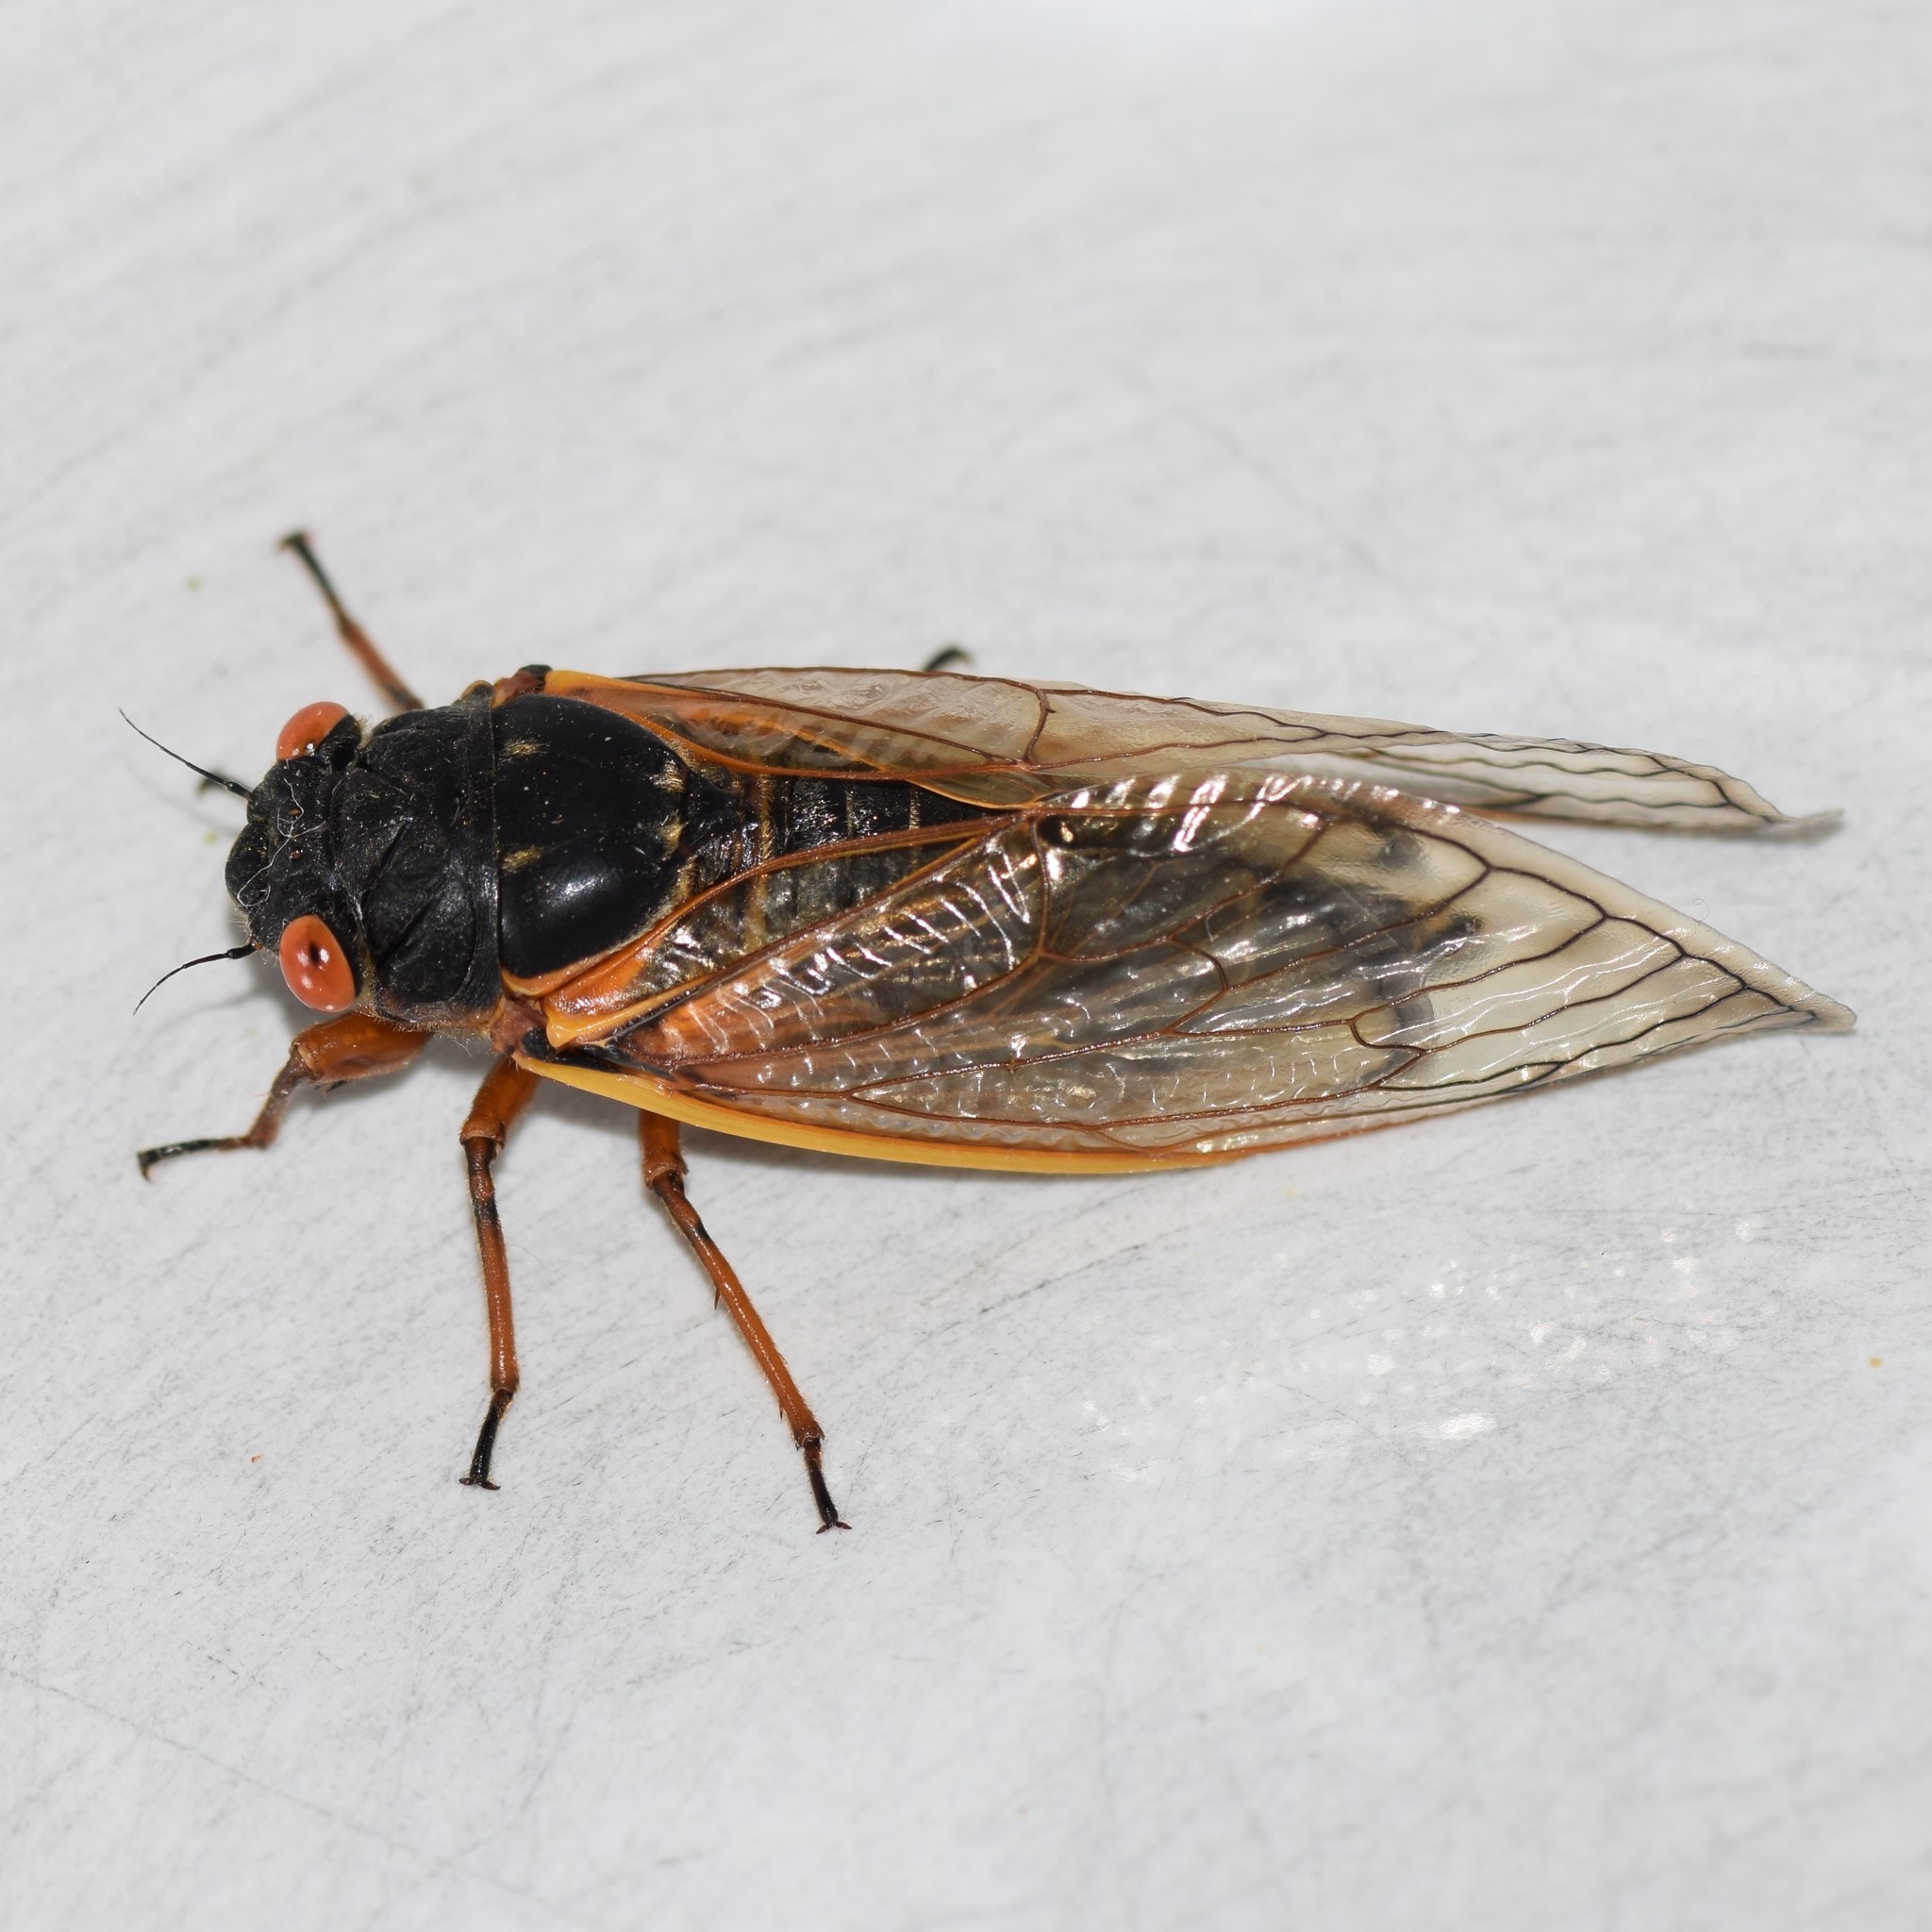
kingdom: Animalia
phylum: Arthropoda
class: Insecta
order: Hemiptera
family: Cicadidae
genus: Magicicada
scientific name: Magicicada septendecim
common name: Periodical cicada
